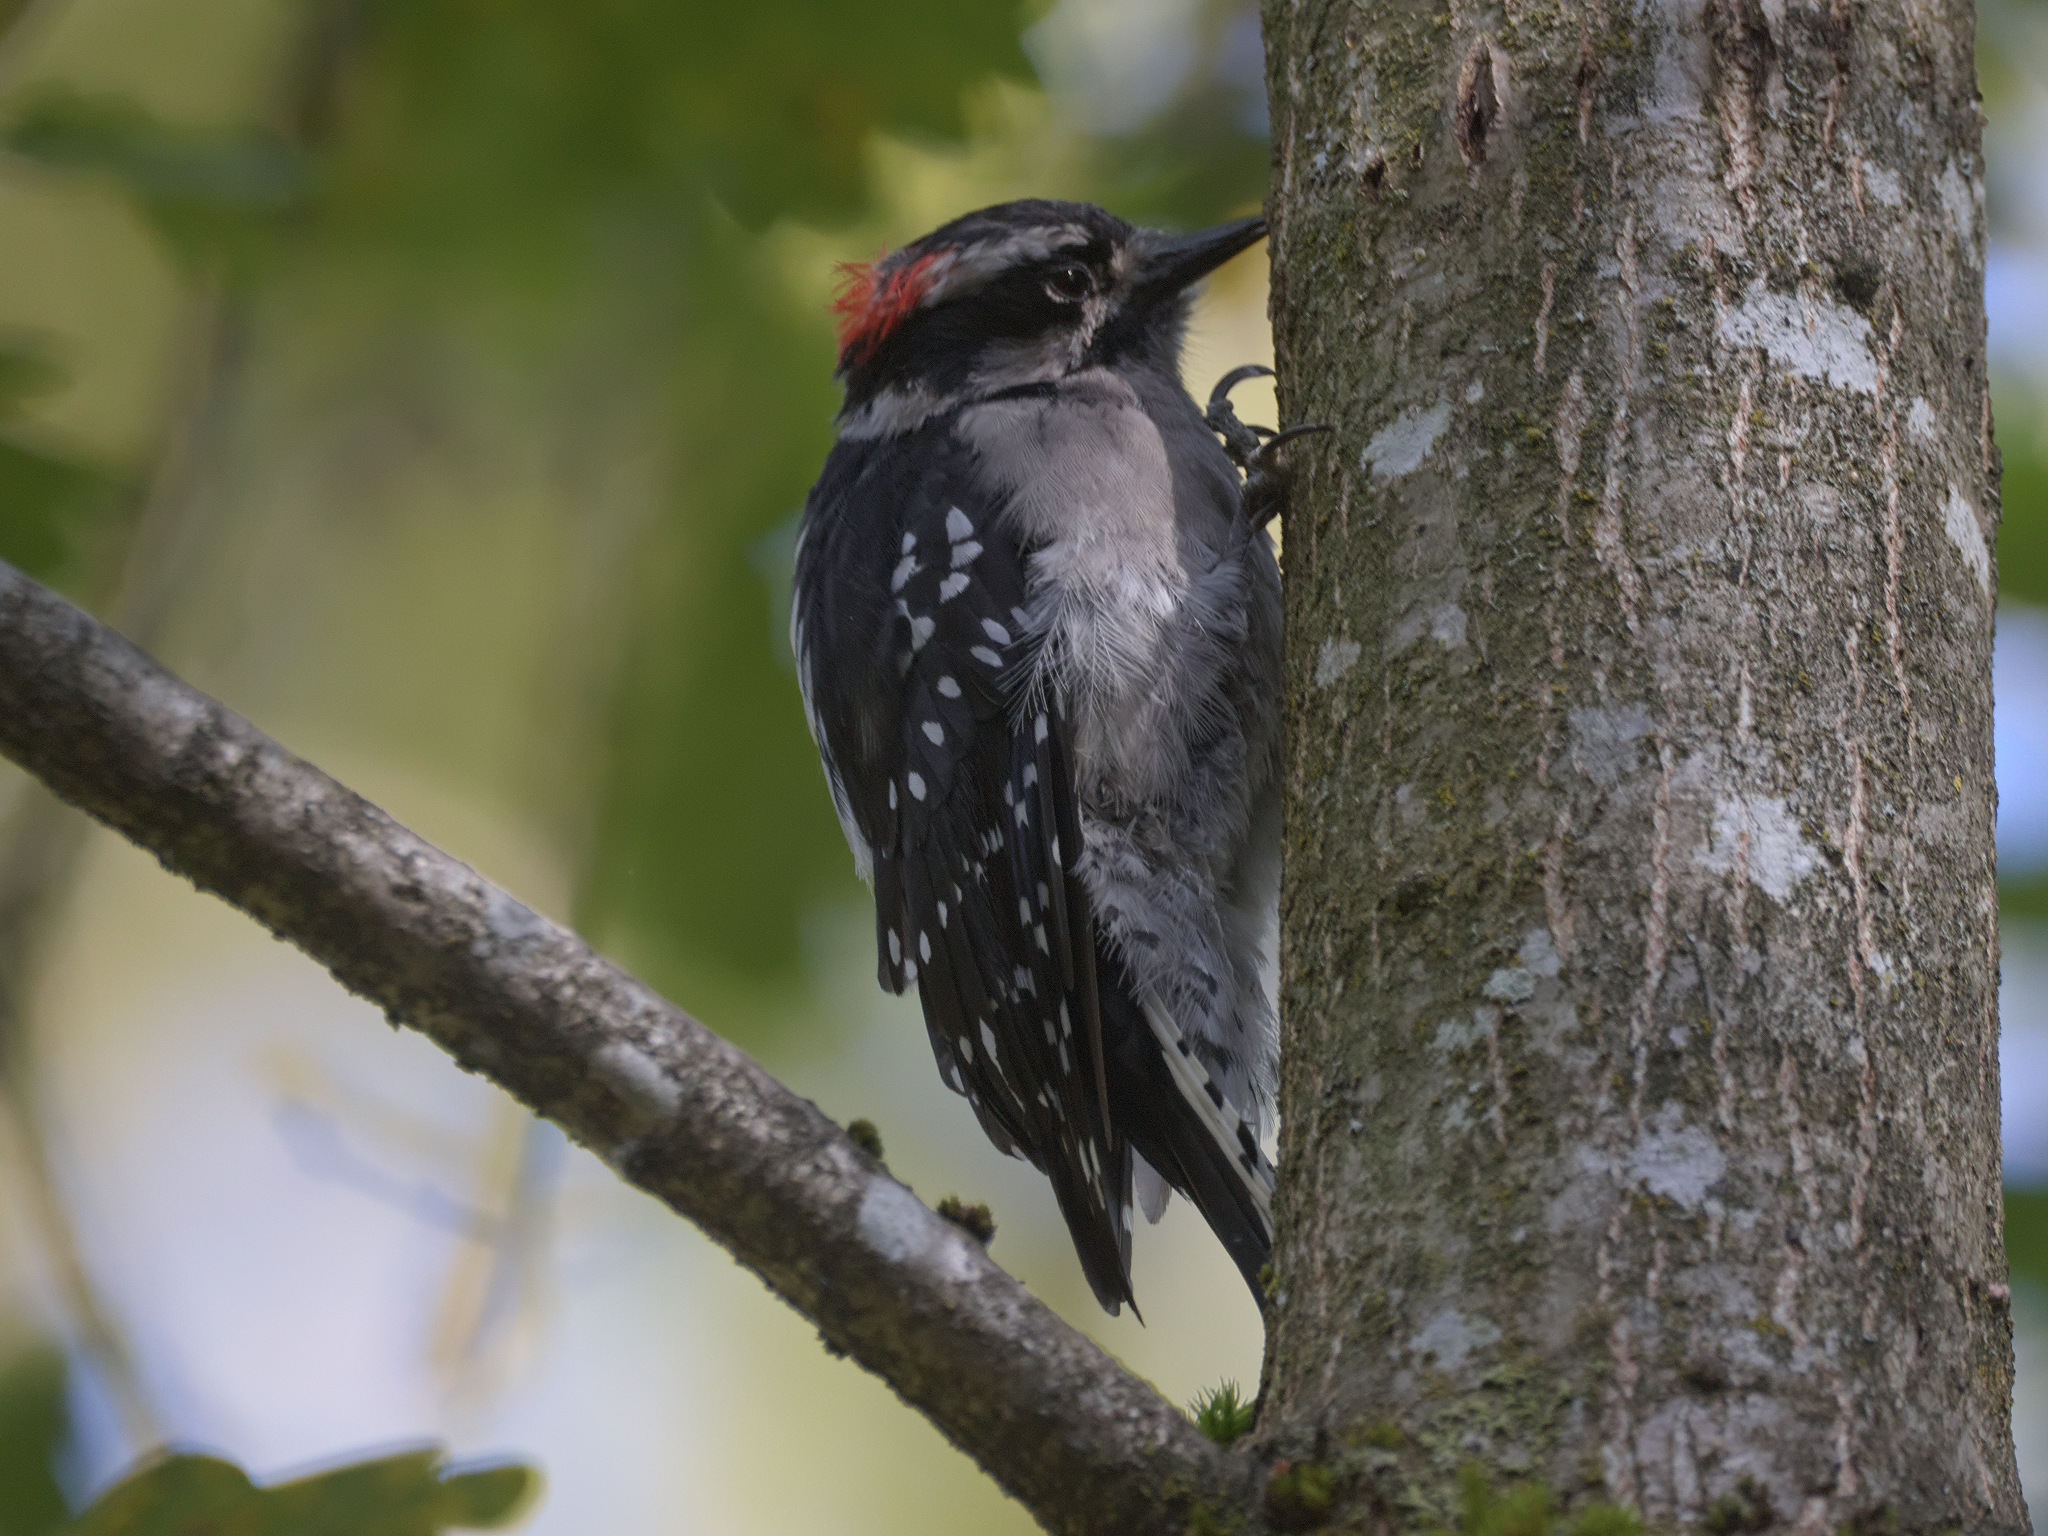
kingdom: Animalia
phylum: Chordata
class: Aves
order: Piciformes
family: Picidae
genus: Dryobates
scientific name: Dryobates pubescens
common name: Downy woodpecker
